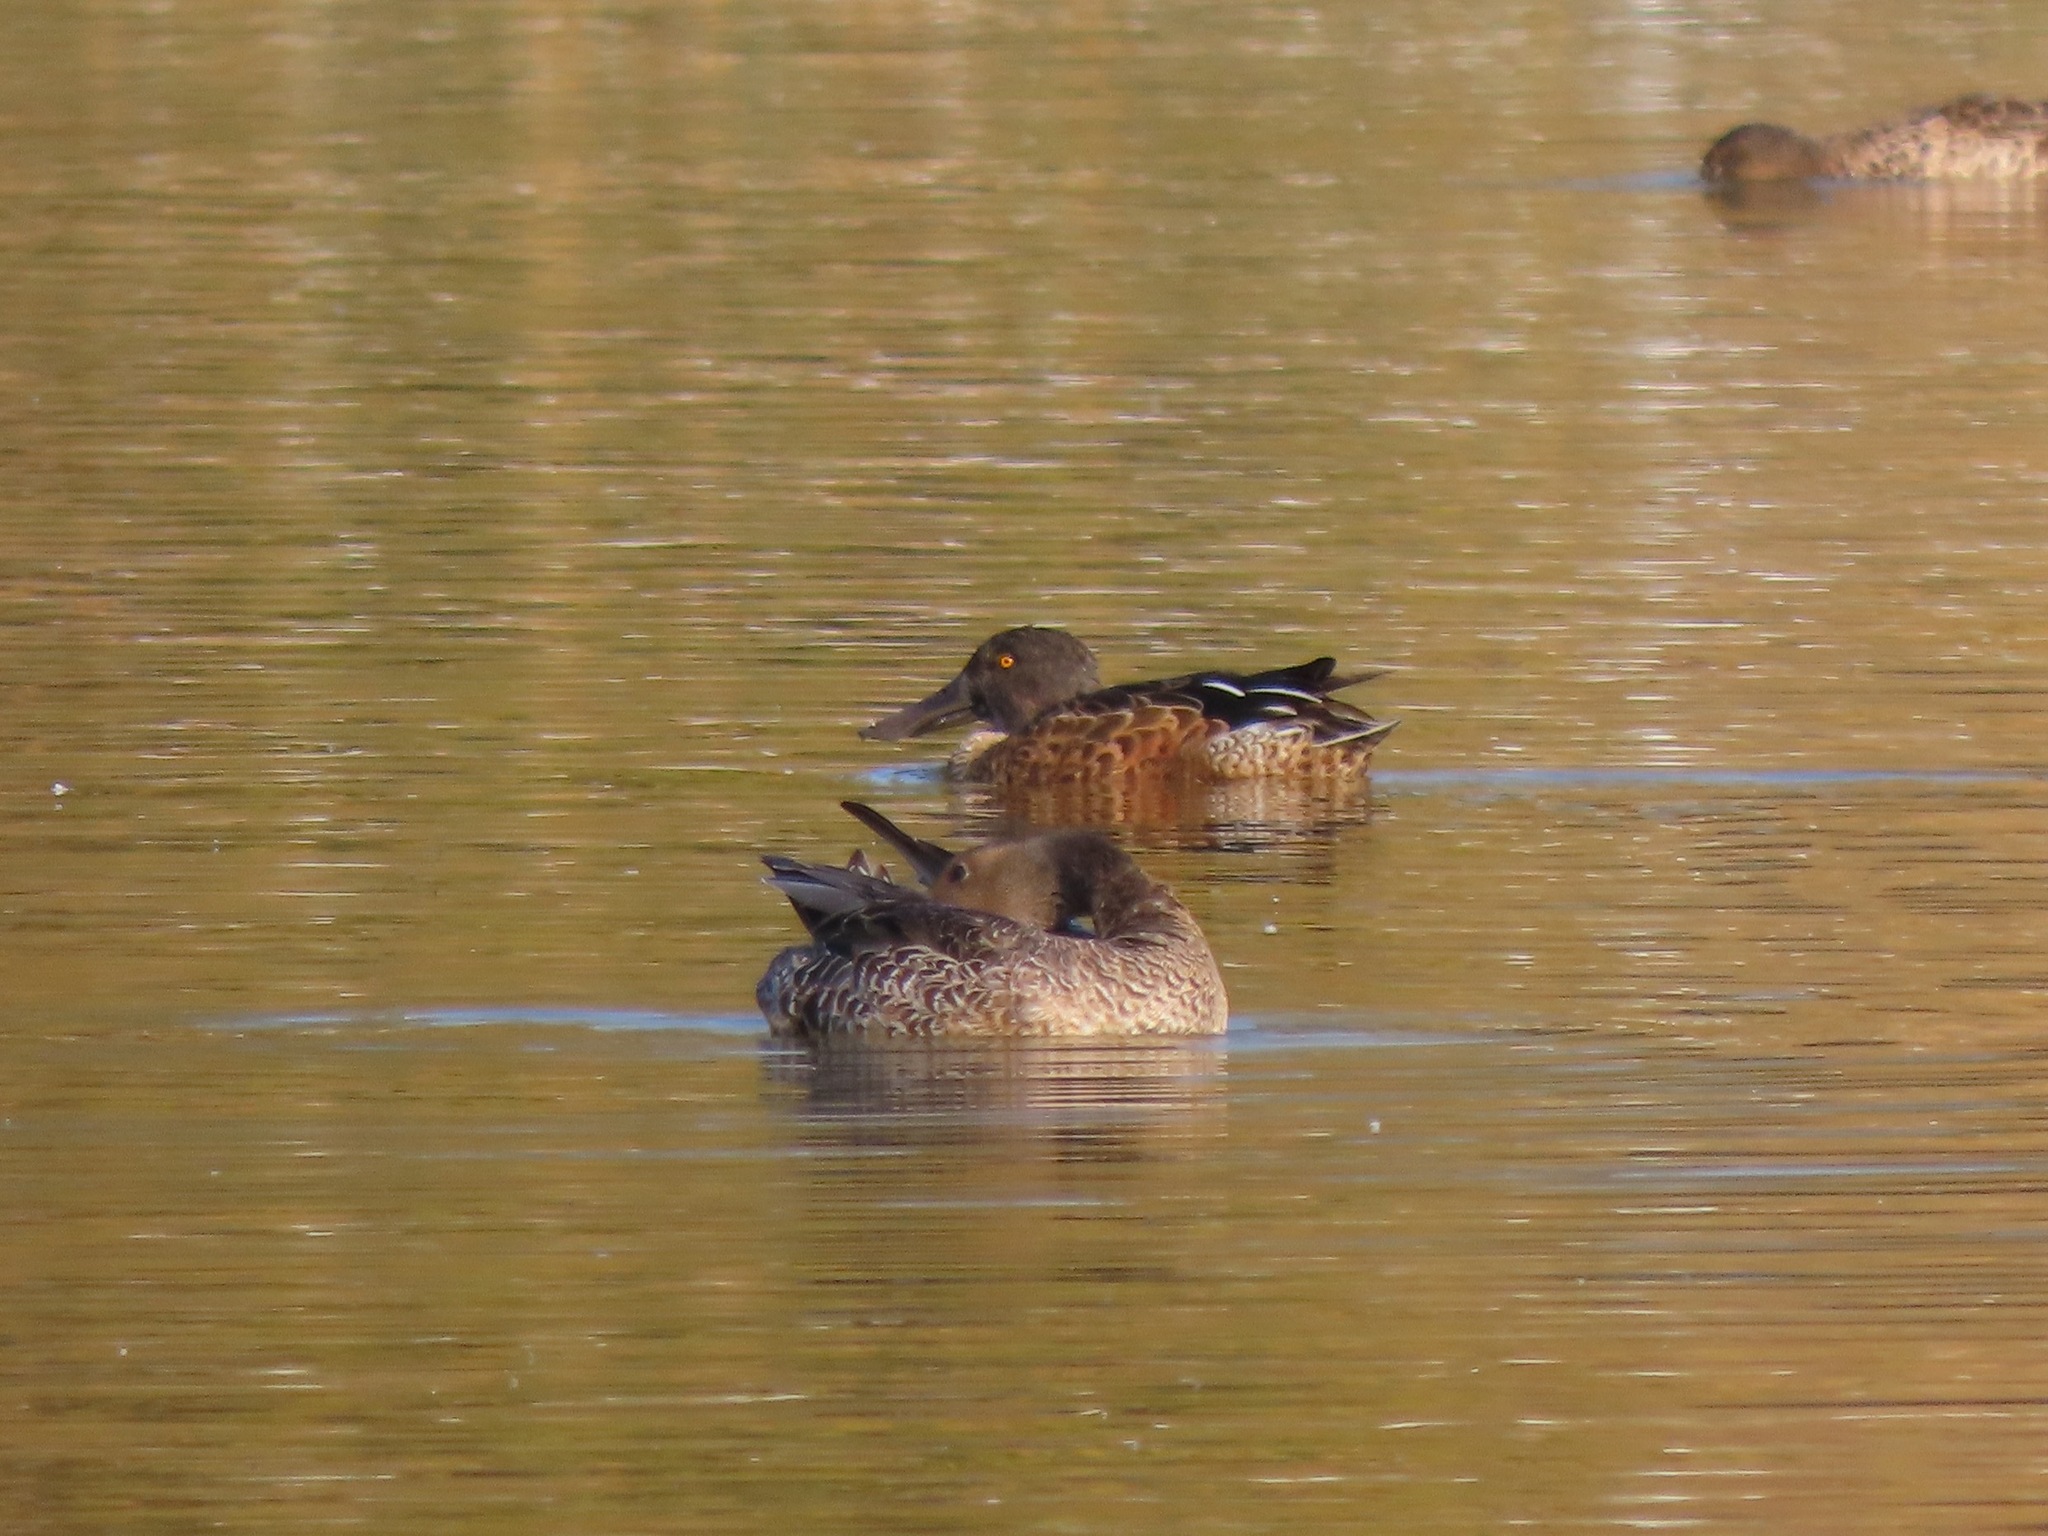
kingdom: Animalia
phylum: Chordata
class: Aves
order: Anseriformes
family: Anatidae
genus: Spatula
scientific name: Spatula clypeata
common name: Northern shoveler
